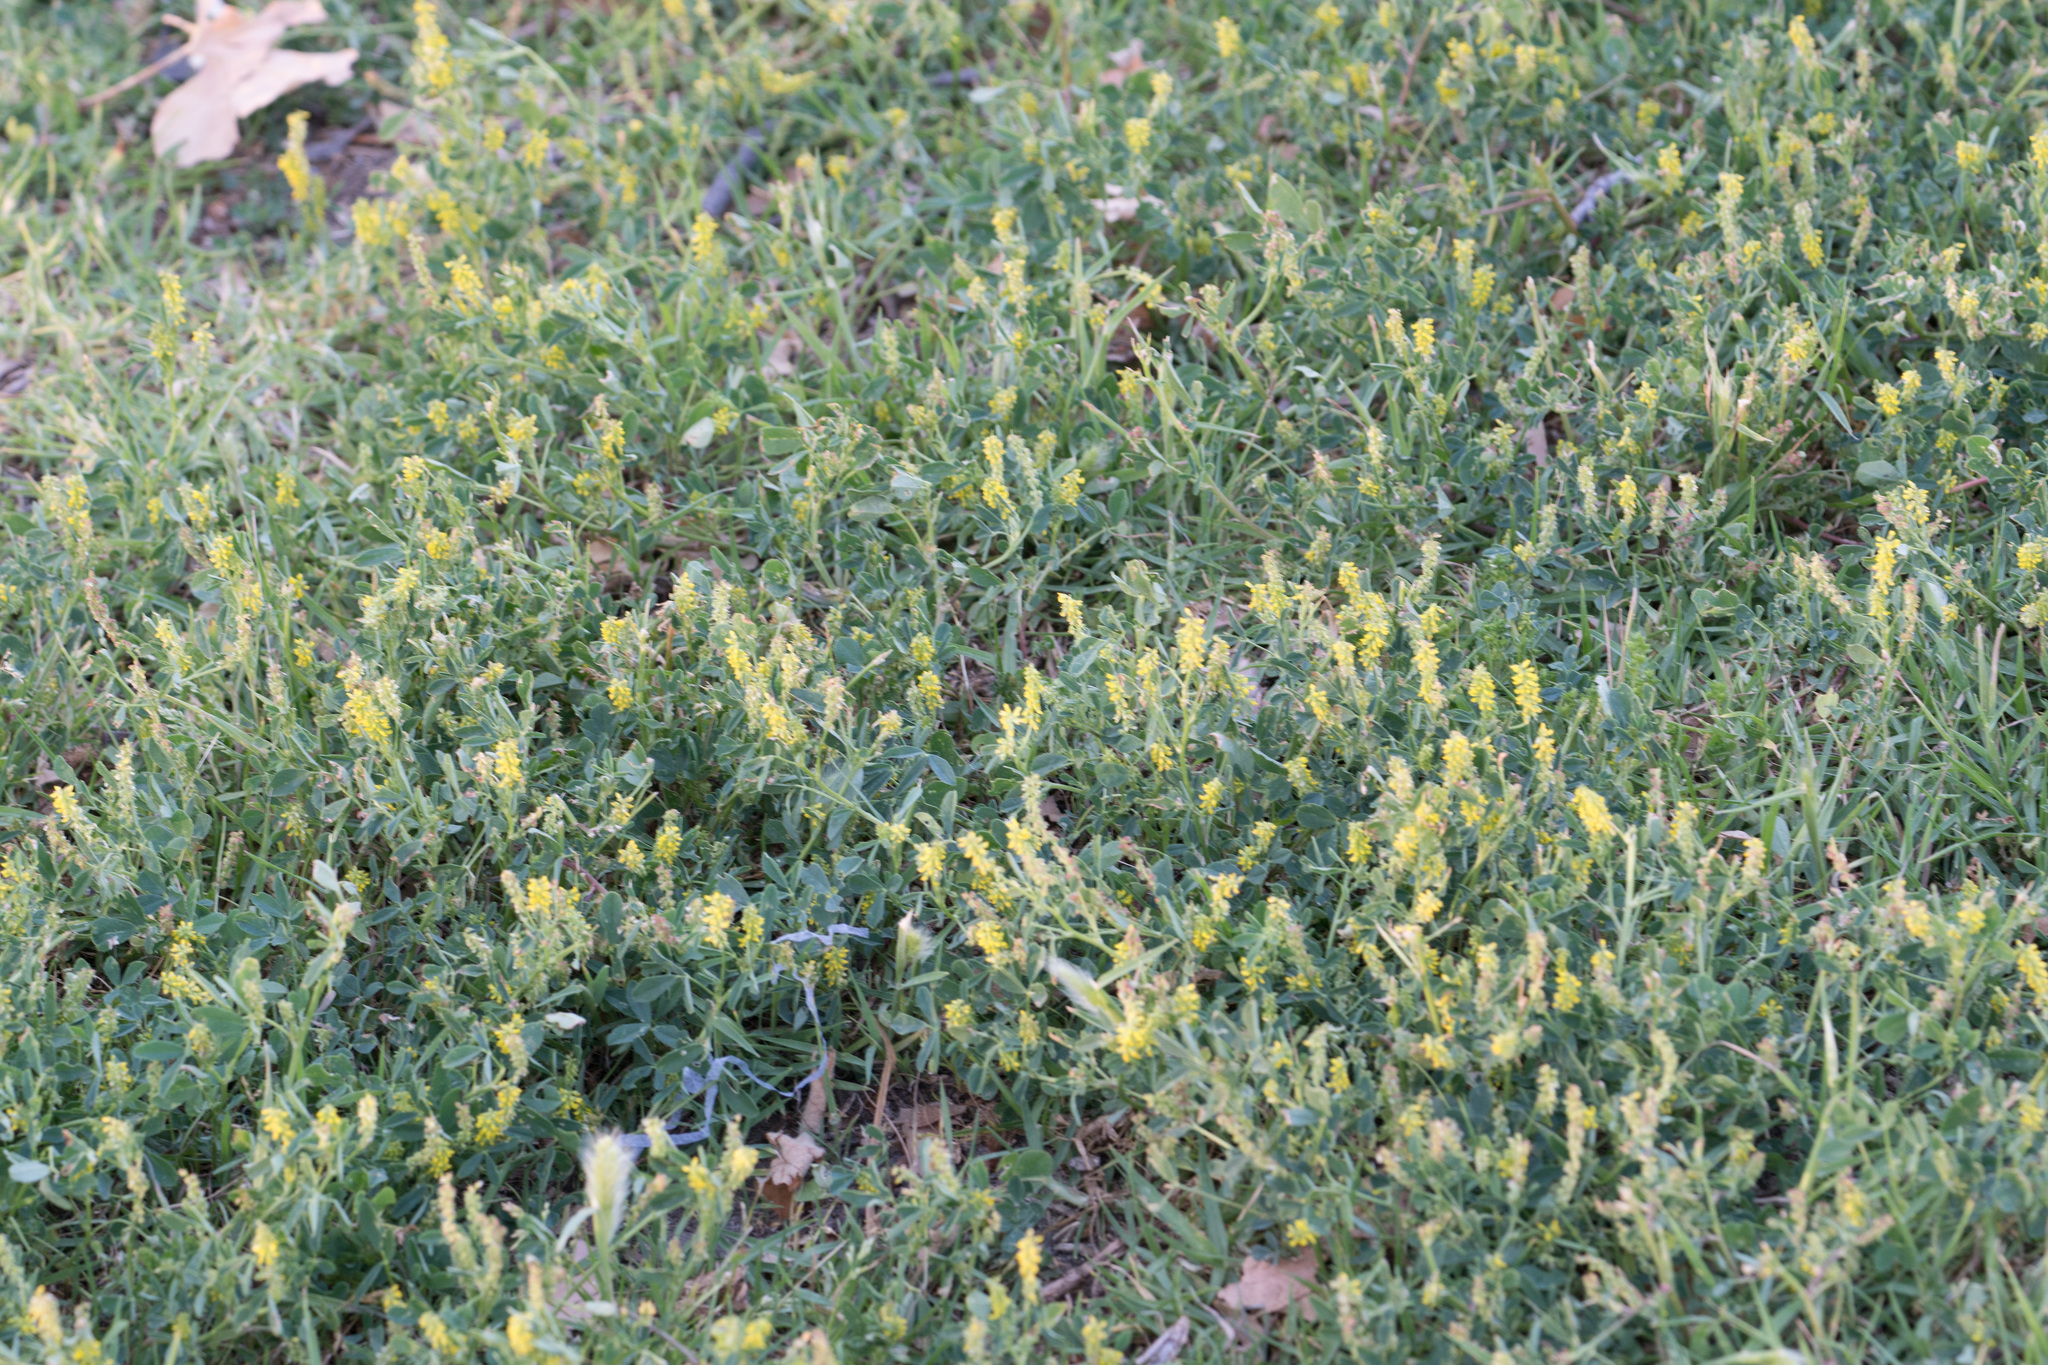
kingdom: Plantae
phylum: Tracheophyta
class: Magnoliopsida
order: Fabales
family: Fabaceae
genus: Melilotus
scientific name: Melilotus indicus
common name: Small melilot
